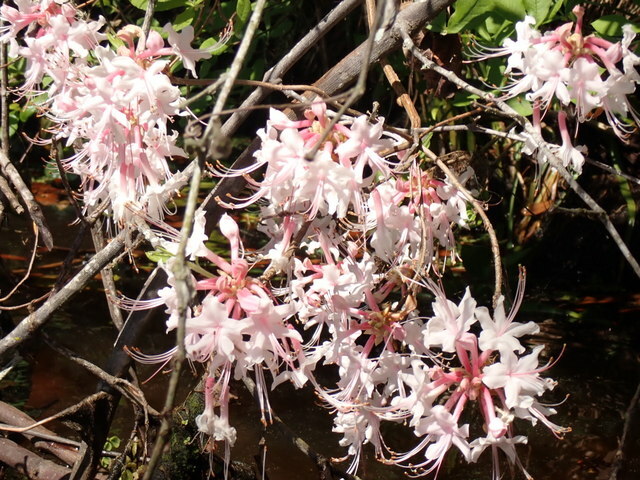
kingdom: Plantae
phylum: Tracheophyta
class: Magnoliopsida
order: Ericales
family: Ericaceae
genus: Rhododendron
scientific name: Rhododendron canescens
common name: Mountain azalea
